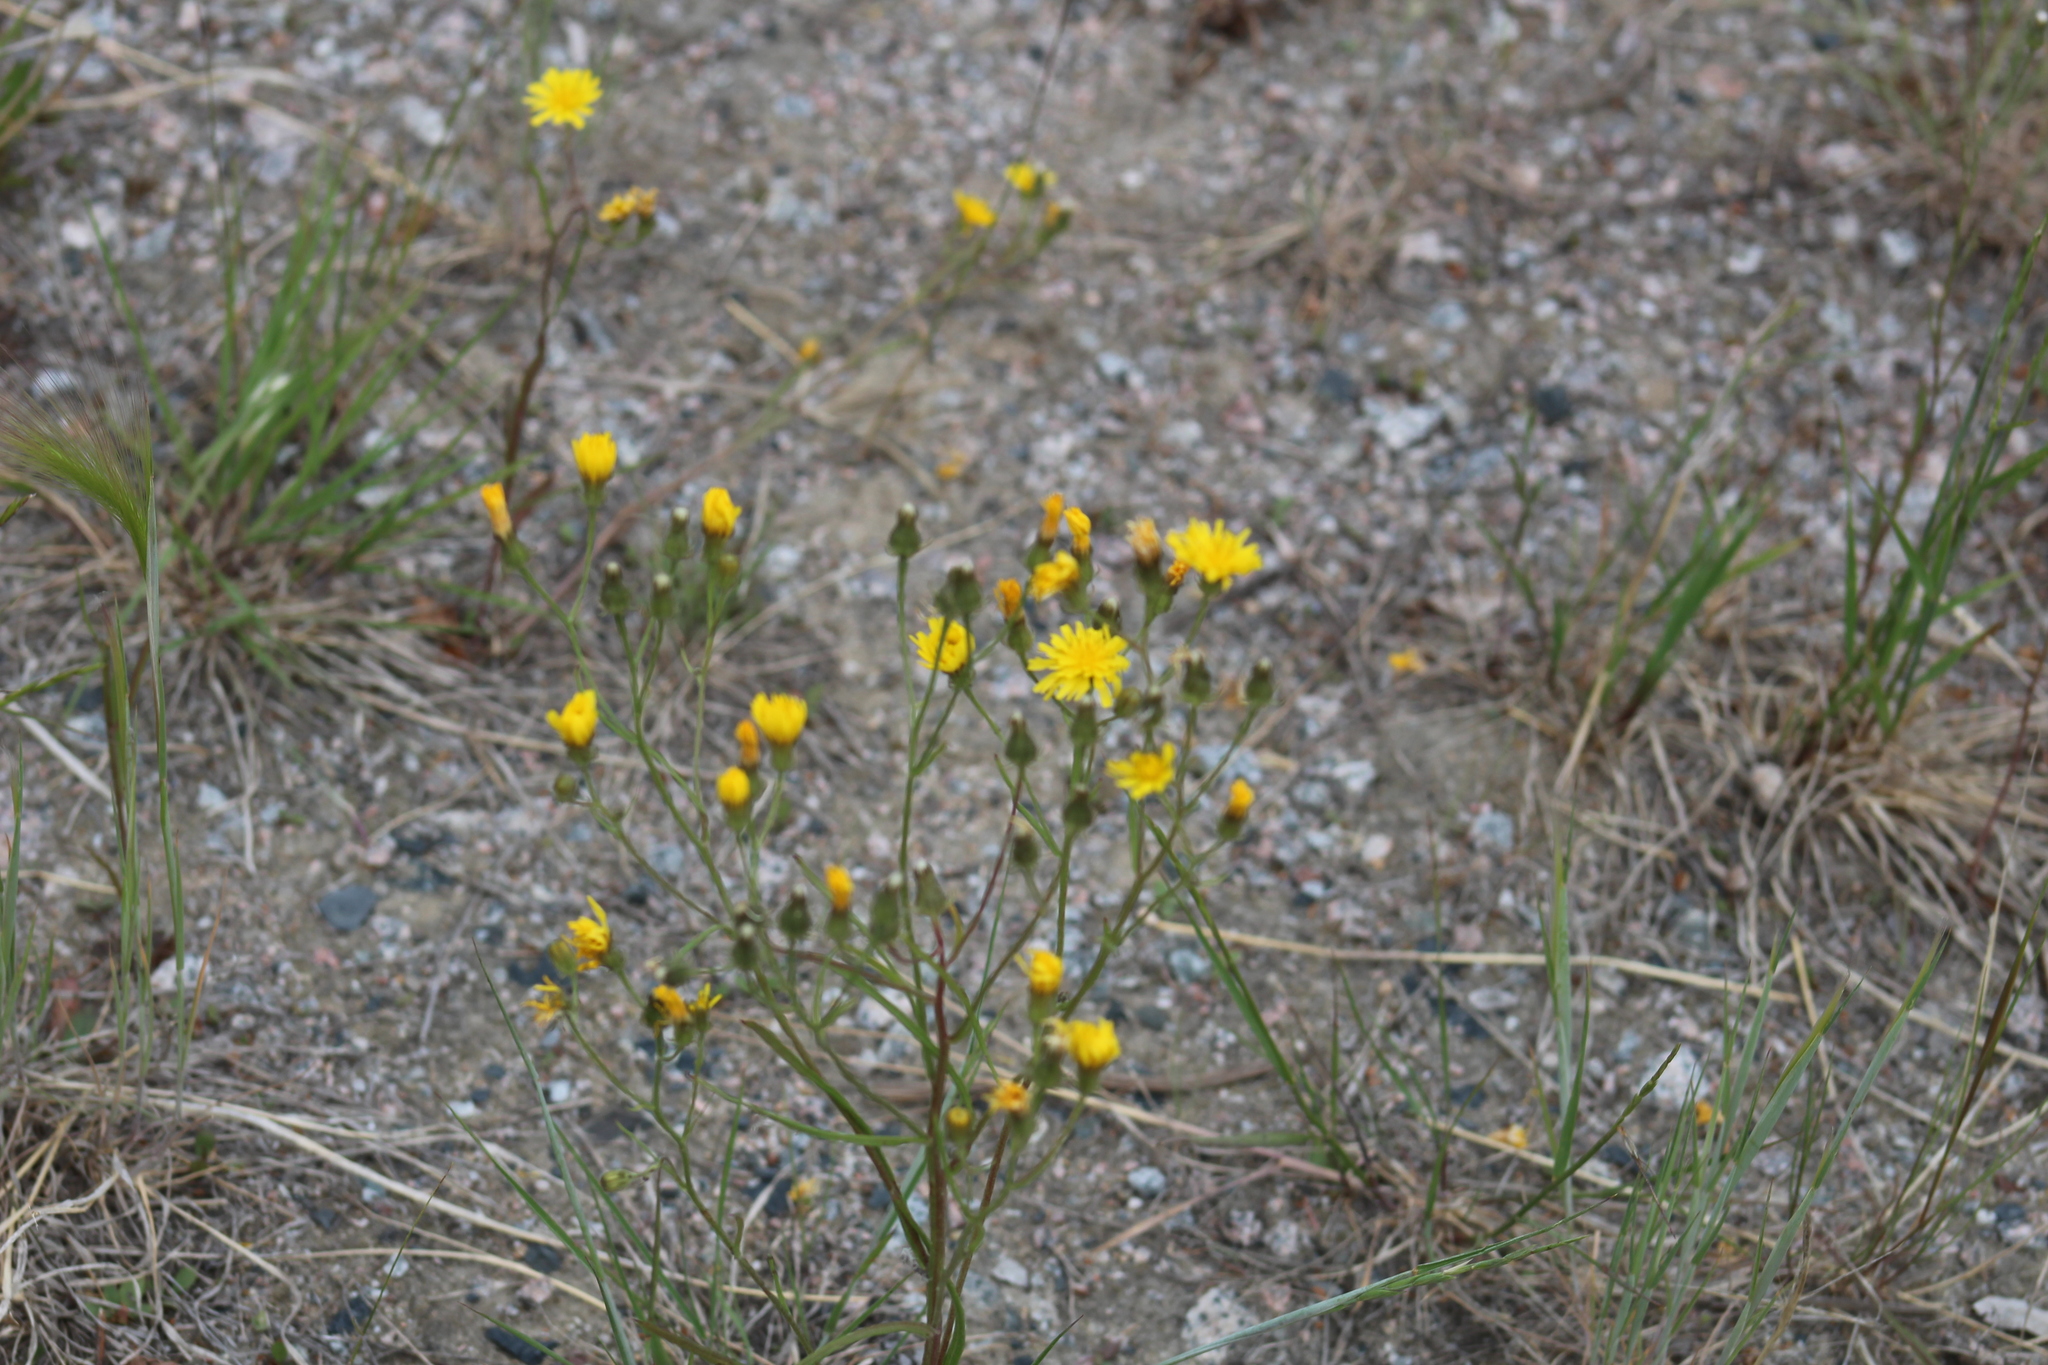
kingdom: Plantae
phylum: Tracheophyta
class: Magnoliopsida
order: Asterales
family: Asteraceae
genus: Crepis
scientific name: Crepis tectorum
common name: Narrow-leaved hawk's-beard
